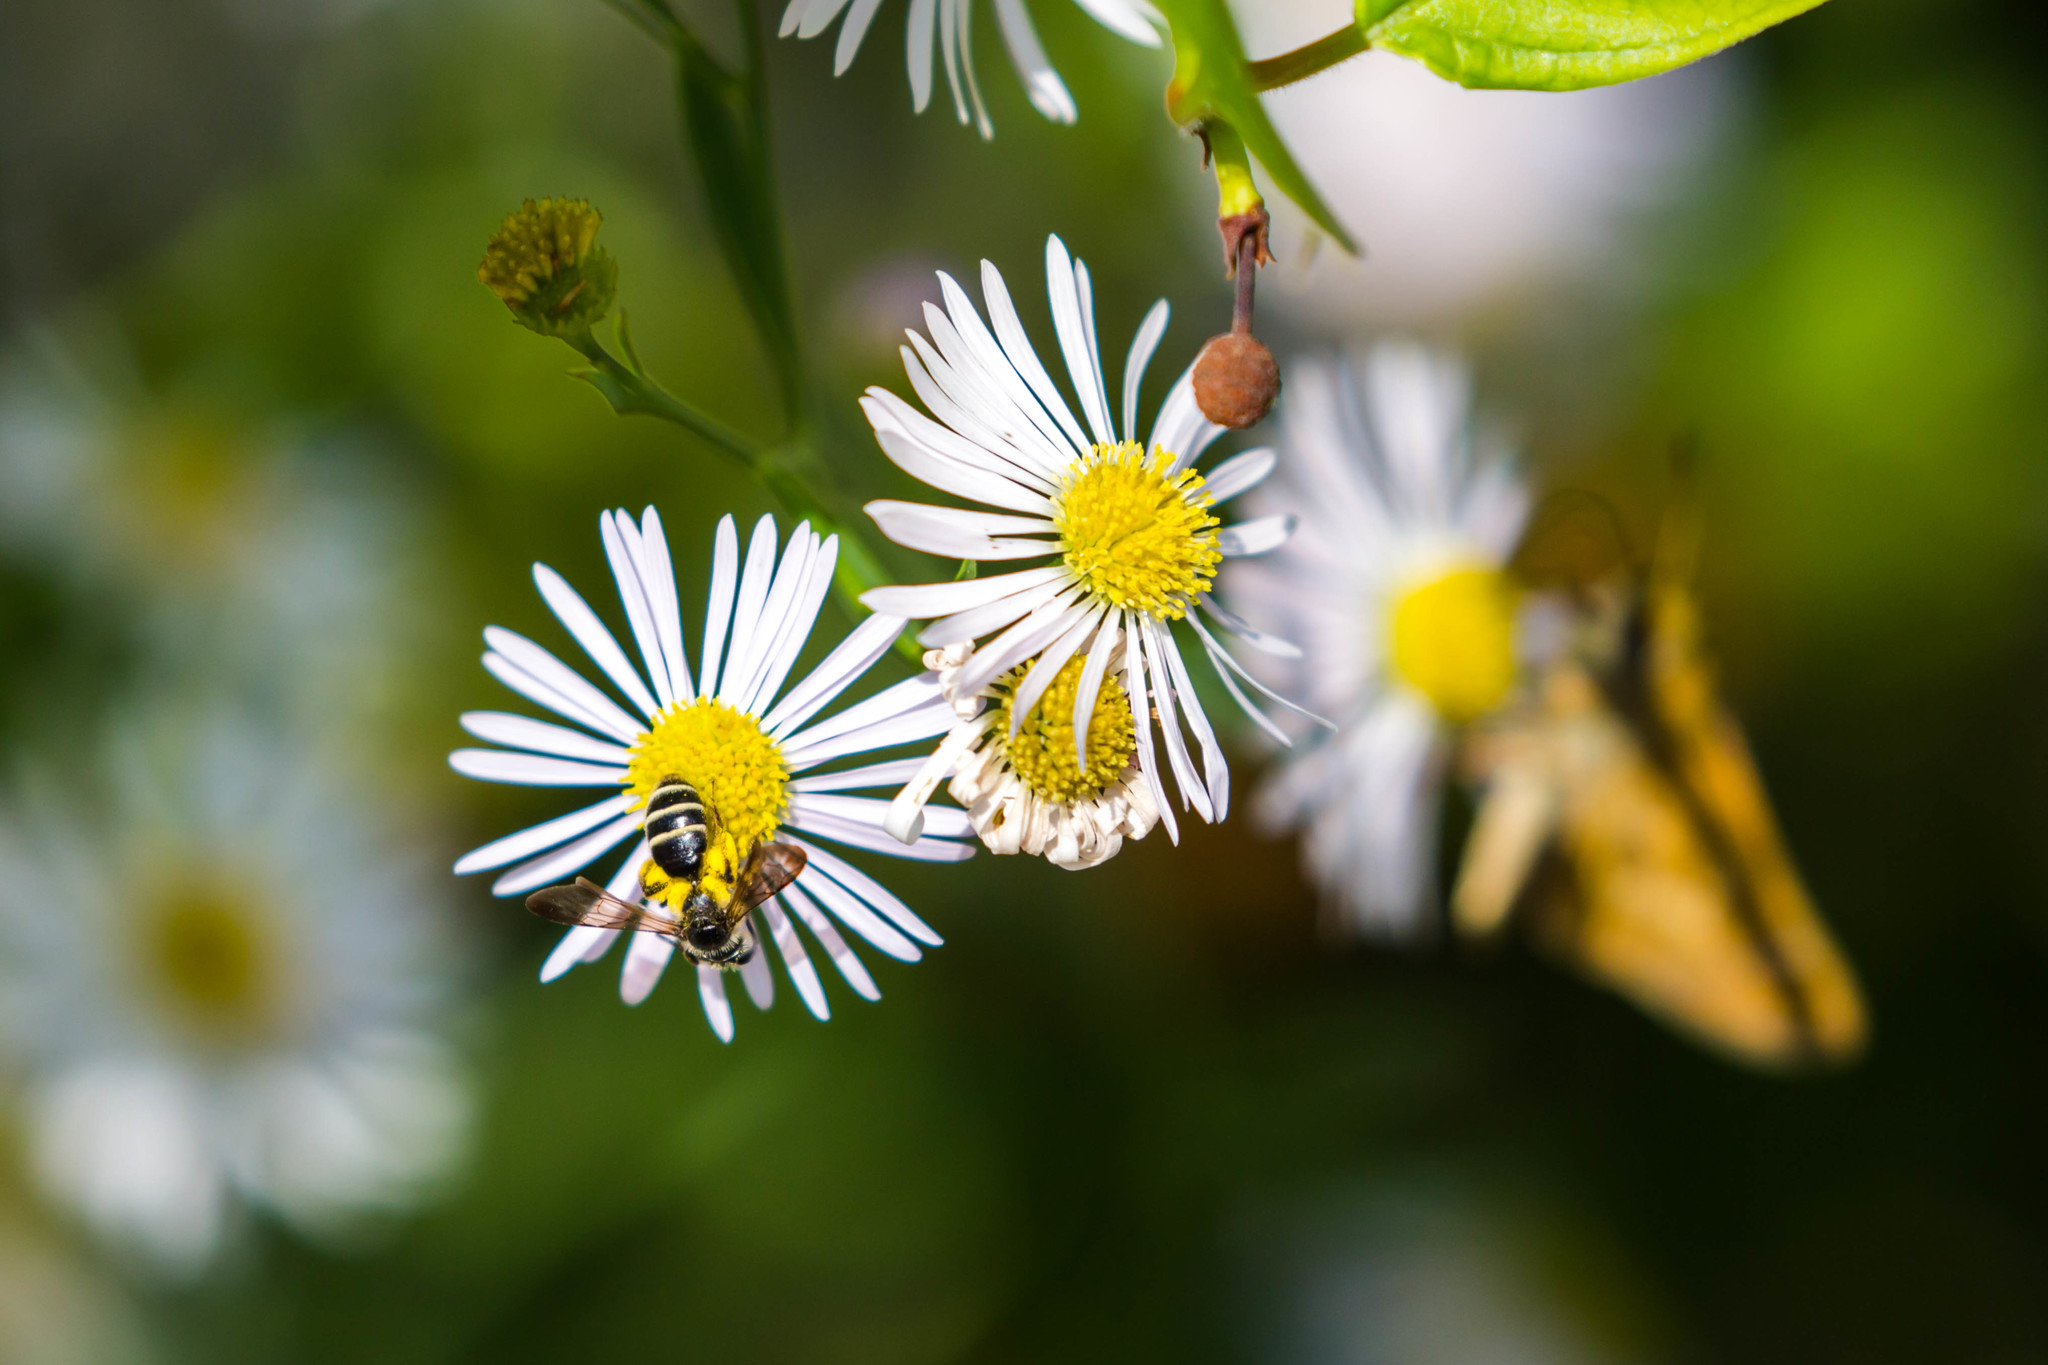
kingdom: Animalia
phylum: Arthropoda
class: Insecta
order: Hymenoptera
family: Andrenidae
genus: Andrena
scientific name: Andrena nubecula
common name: Cloudy-winged mining bee
